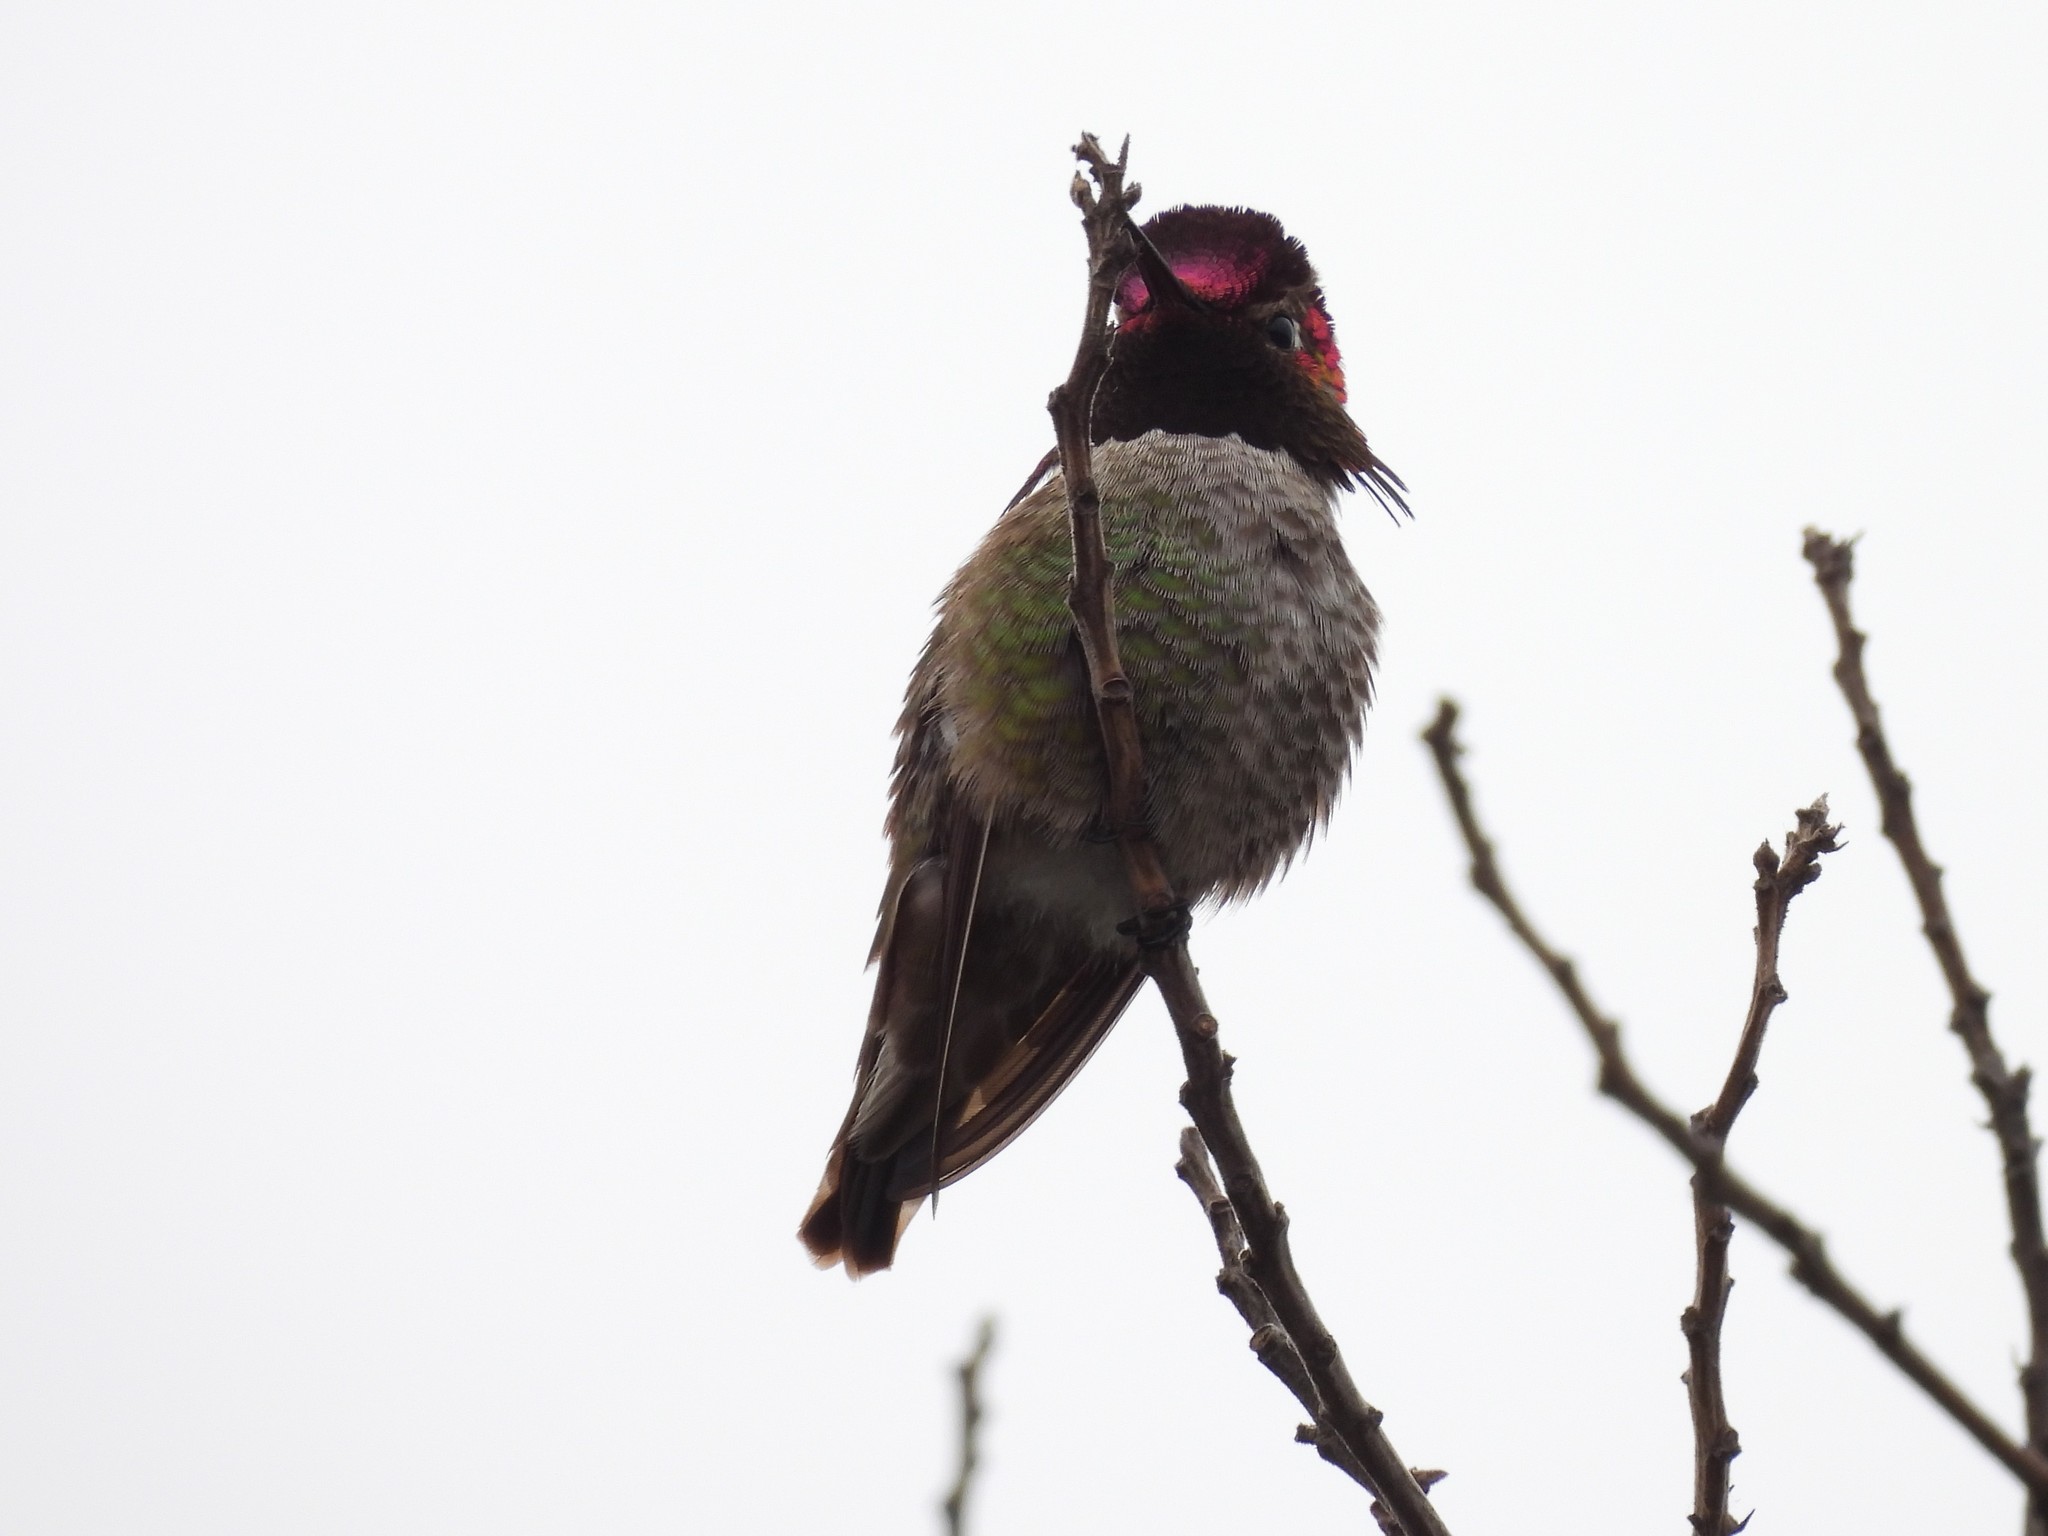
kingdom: Animalia
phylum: Chordata
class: Aves
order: Apodiformes
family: Trochilidae
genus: Calypte
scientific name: Calypte anna
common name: Anna's hummingbird
